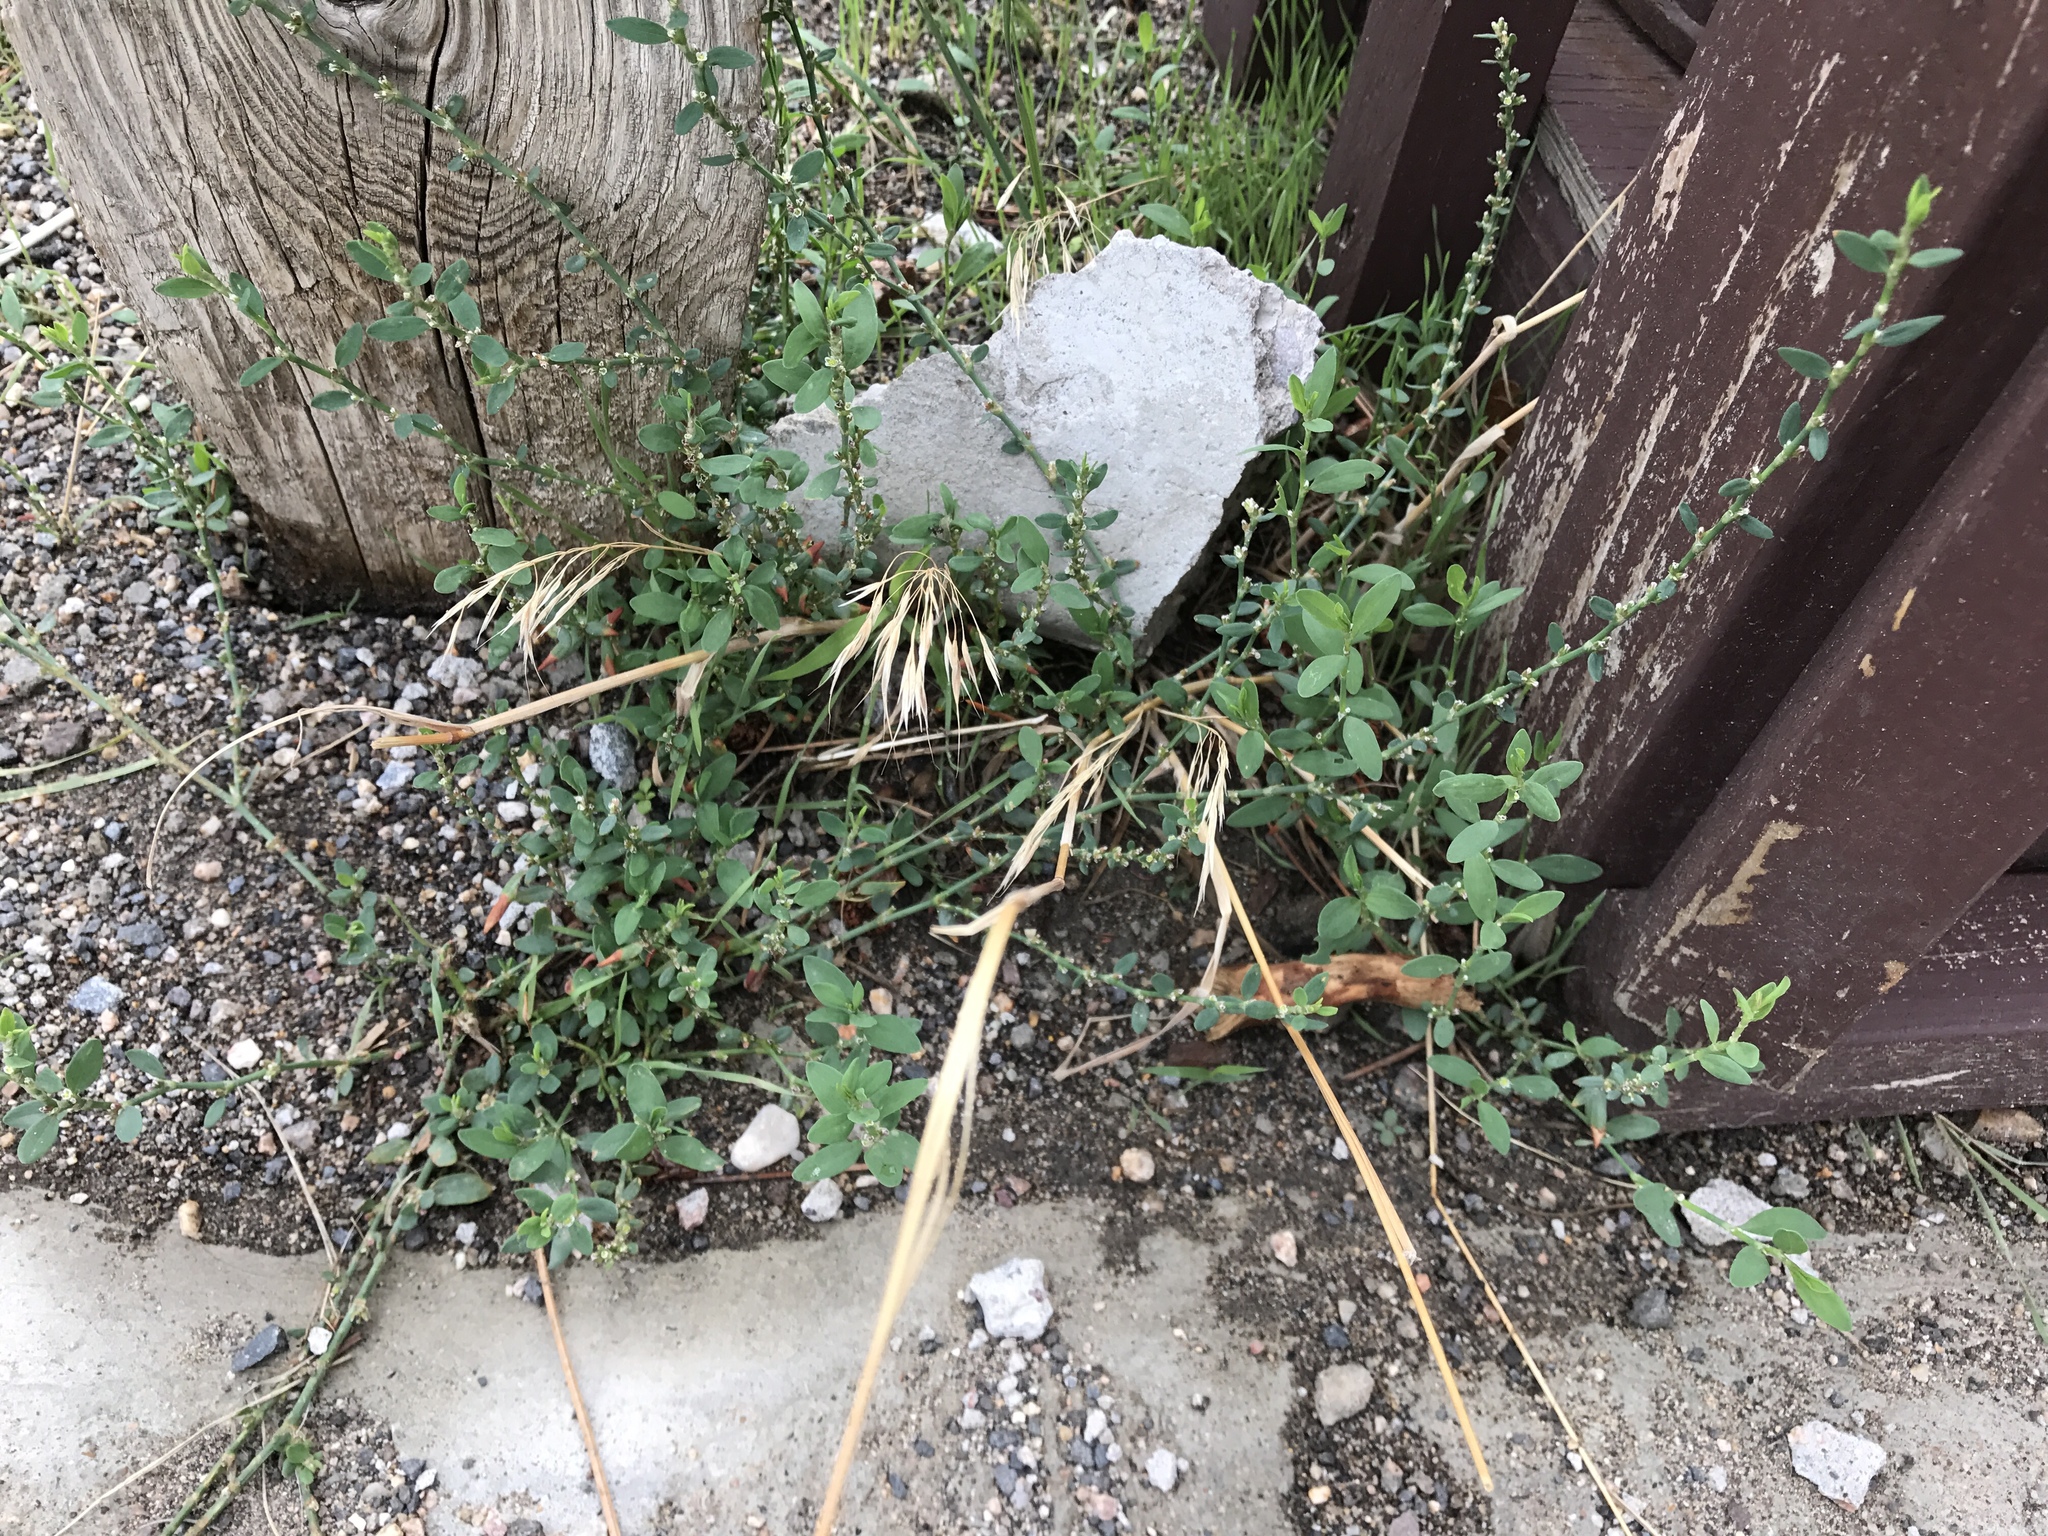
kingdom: Plantae
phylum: Tracheophyta
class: Magnoliopsida
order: Caryophyllales
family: Polygonaceae
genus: Polygonum
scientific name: Polygonum aviculare
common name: Prostrate knotweed
